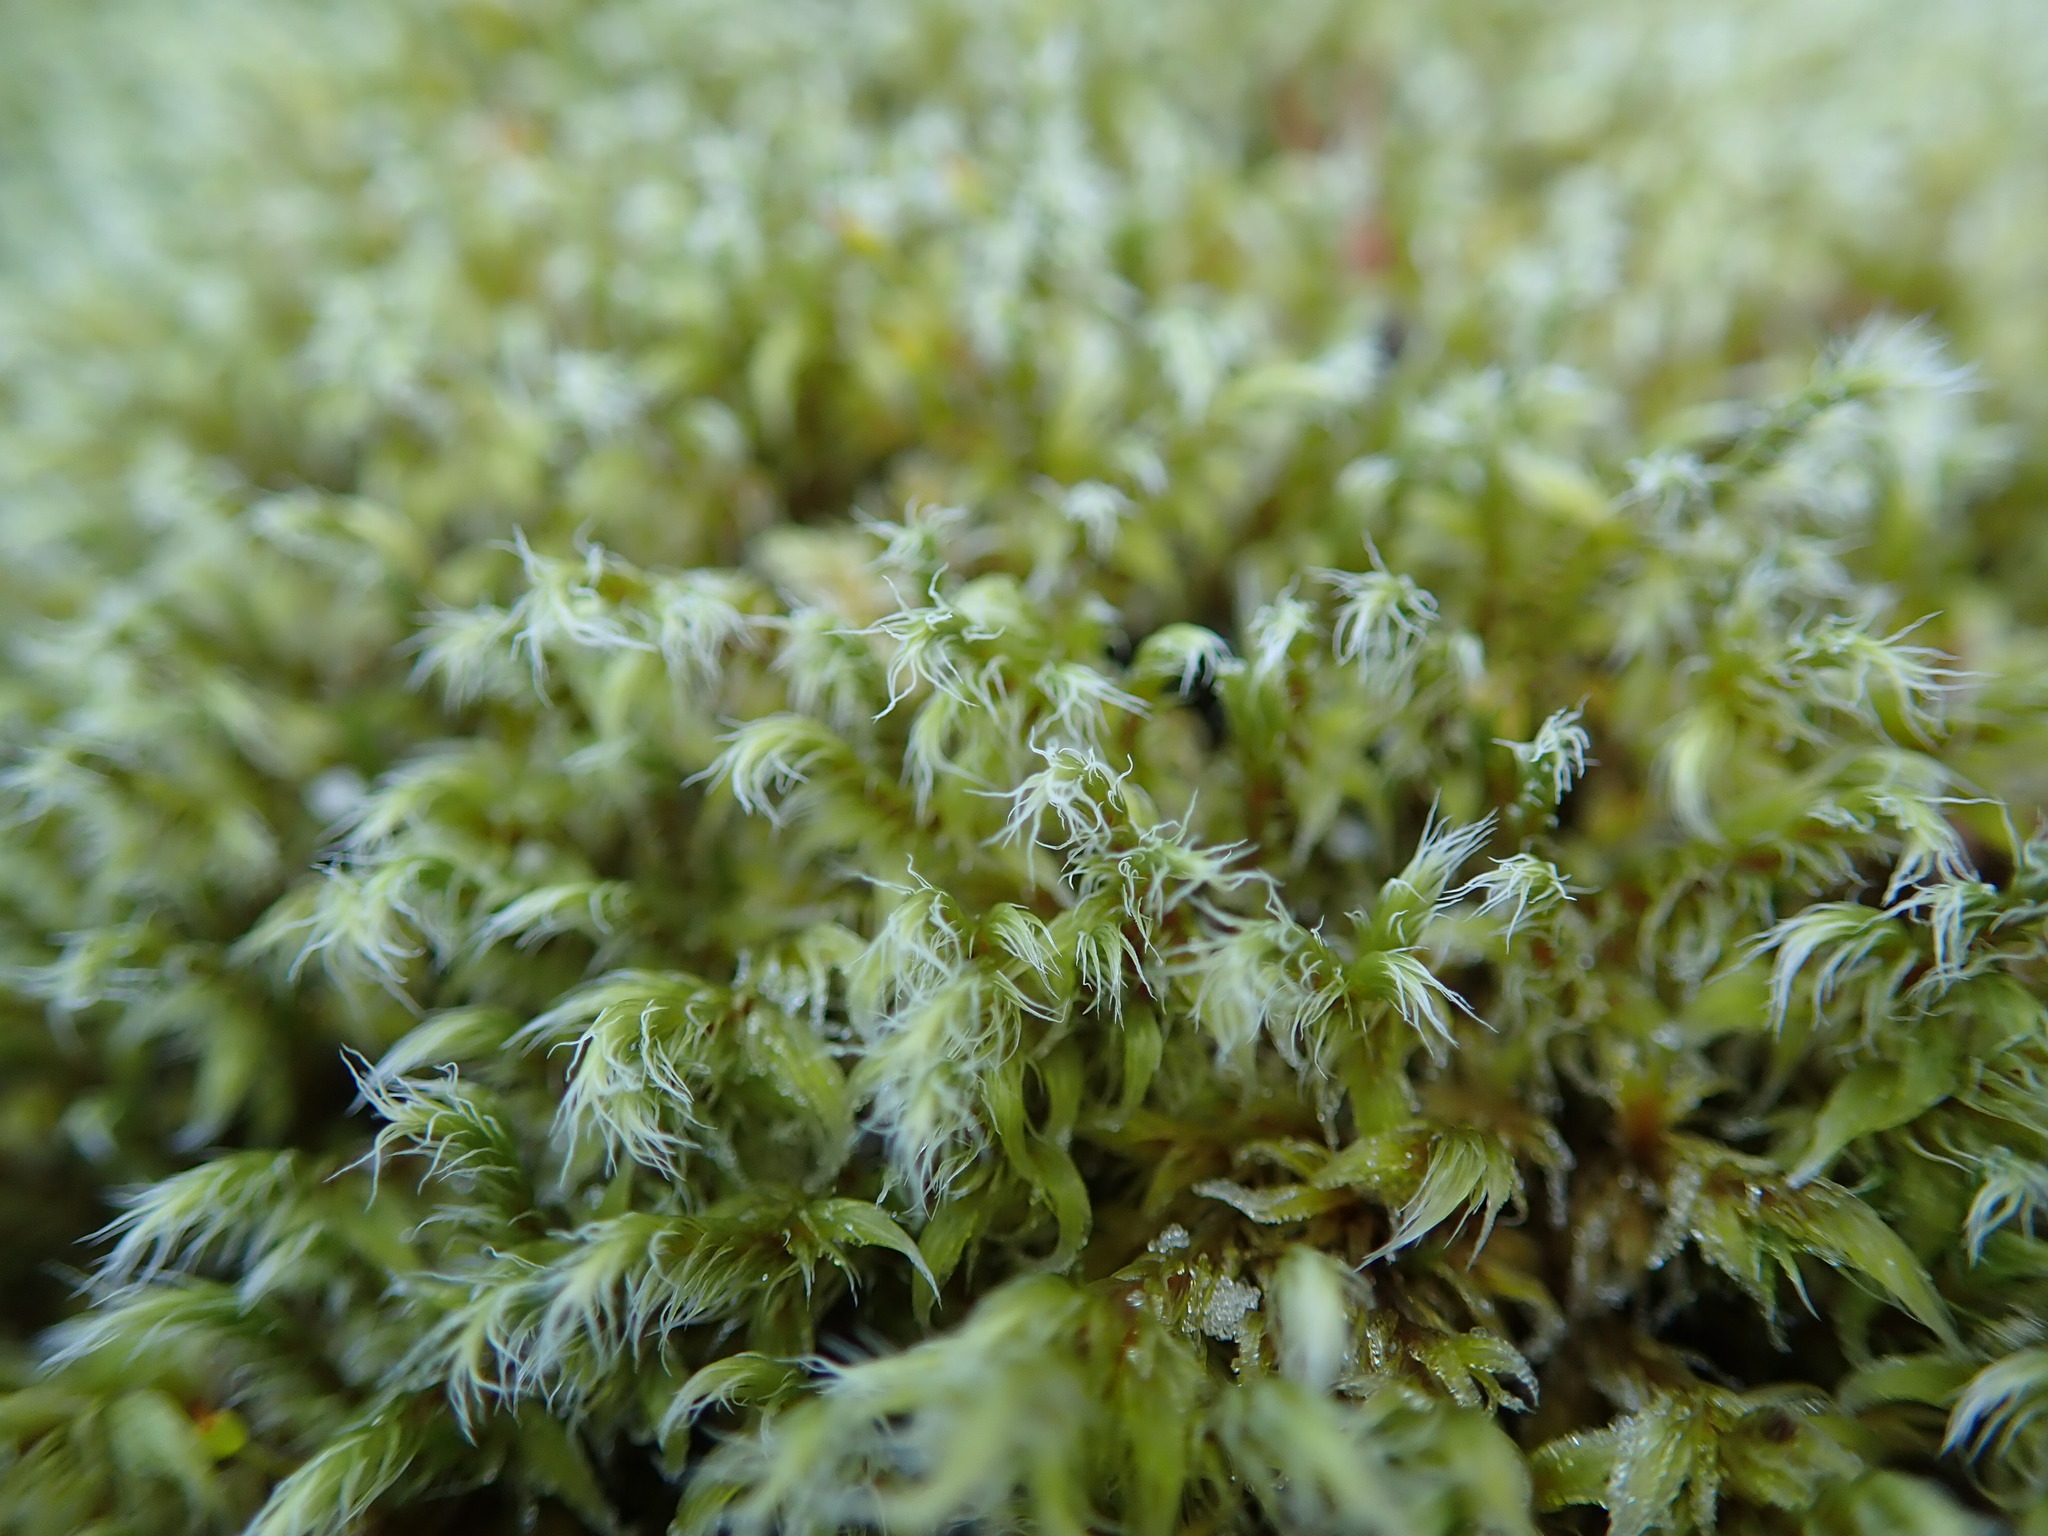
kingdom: Plantae
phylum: Bryophyta
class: Bryopsida
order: Grimmiales
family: Grimmiaceae
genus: Racomitrium
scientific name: Racomitrium lanuginosum
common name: Hoary rock moss
